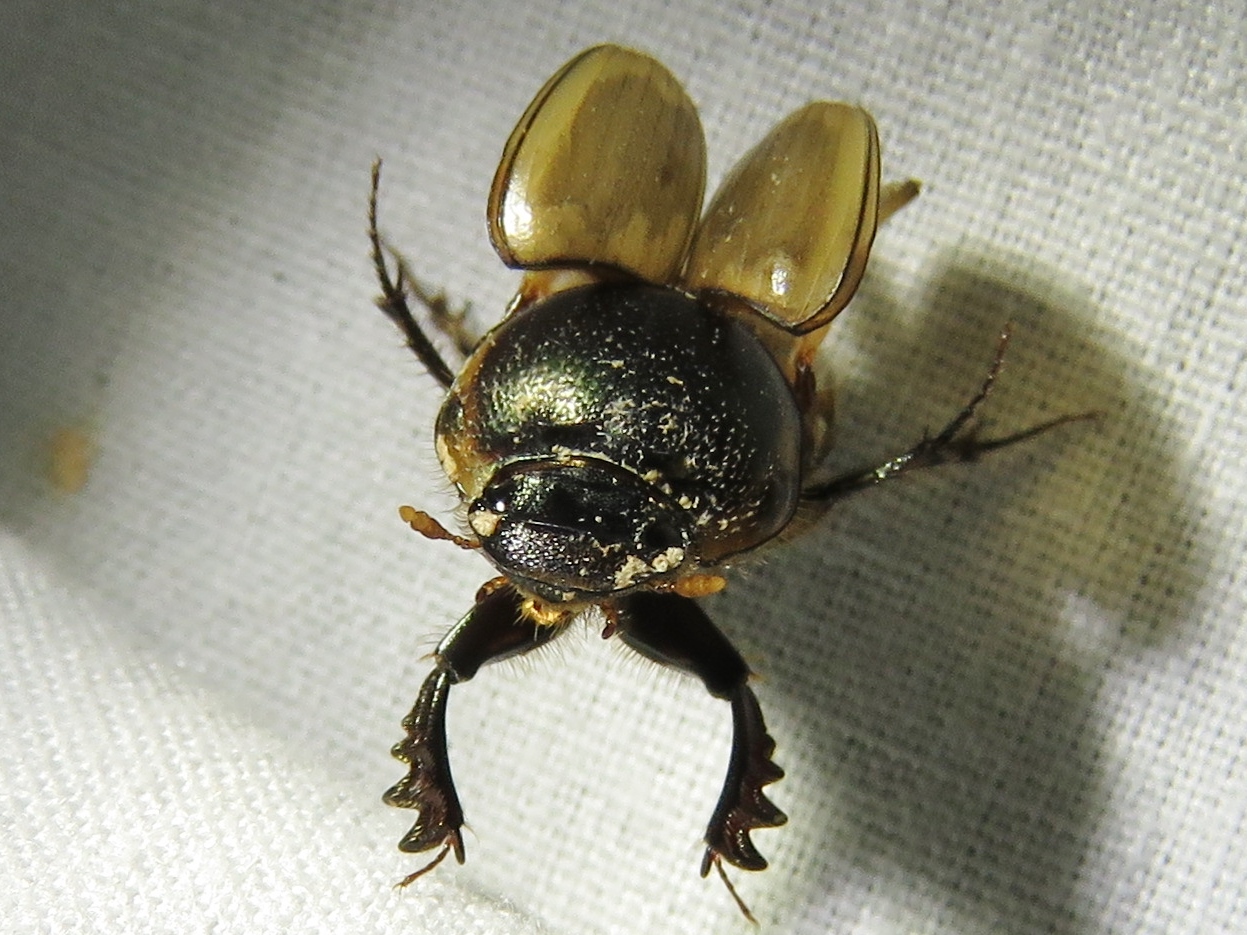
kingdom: Animalia
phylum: Arthropoda
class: Insecta
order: Coleoptera
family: Scarabaeidae
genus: Digitonthophagus
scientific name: Digitonthophagus gazella
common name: Brown dung beetle
